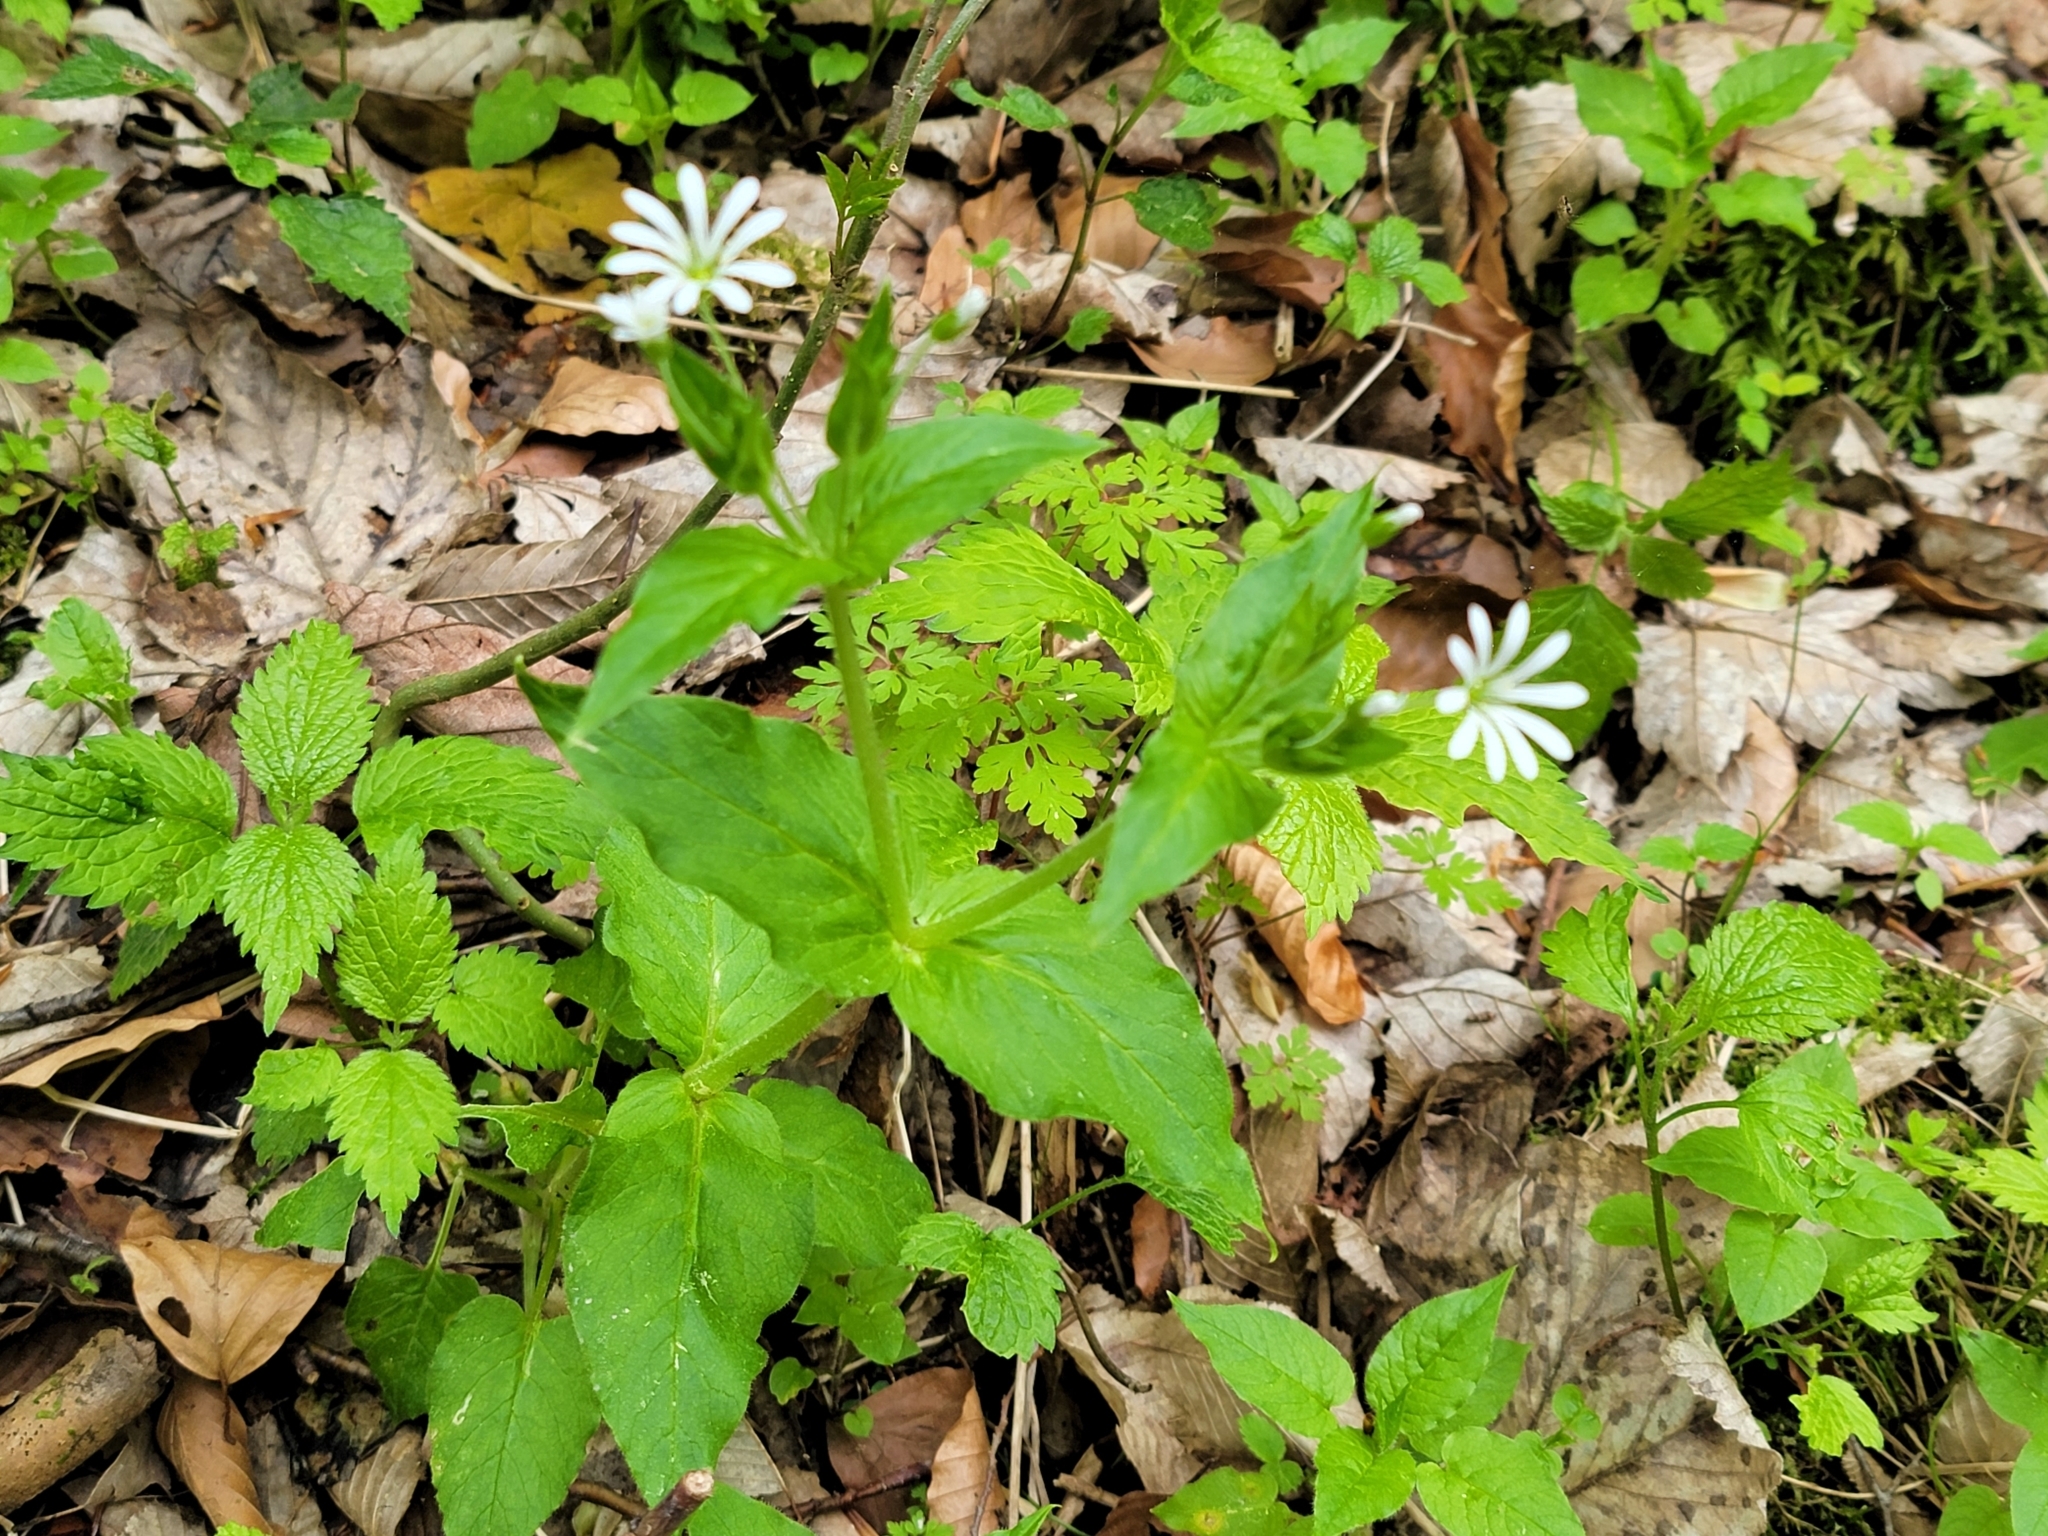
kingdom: Plantae
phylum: Tracheophyta
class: Magnoliopsida
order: Caryophyllales
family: Caryophyllaceae
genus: Stellaria
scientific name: Stellaria nemorum
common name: Wood stitchwort
